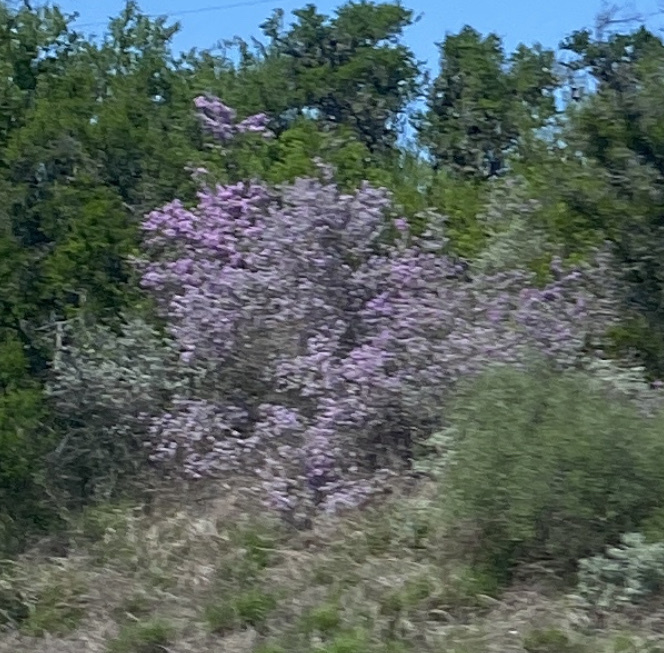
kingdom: Plantae
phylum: Tracheophyta
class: Magnoliopsida
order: Lamiales
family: Scrophulariaceae
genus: Leucophyllum
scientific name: Leucophyllum frutescens
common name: Texas silverleaf
